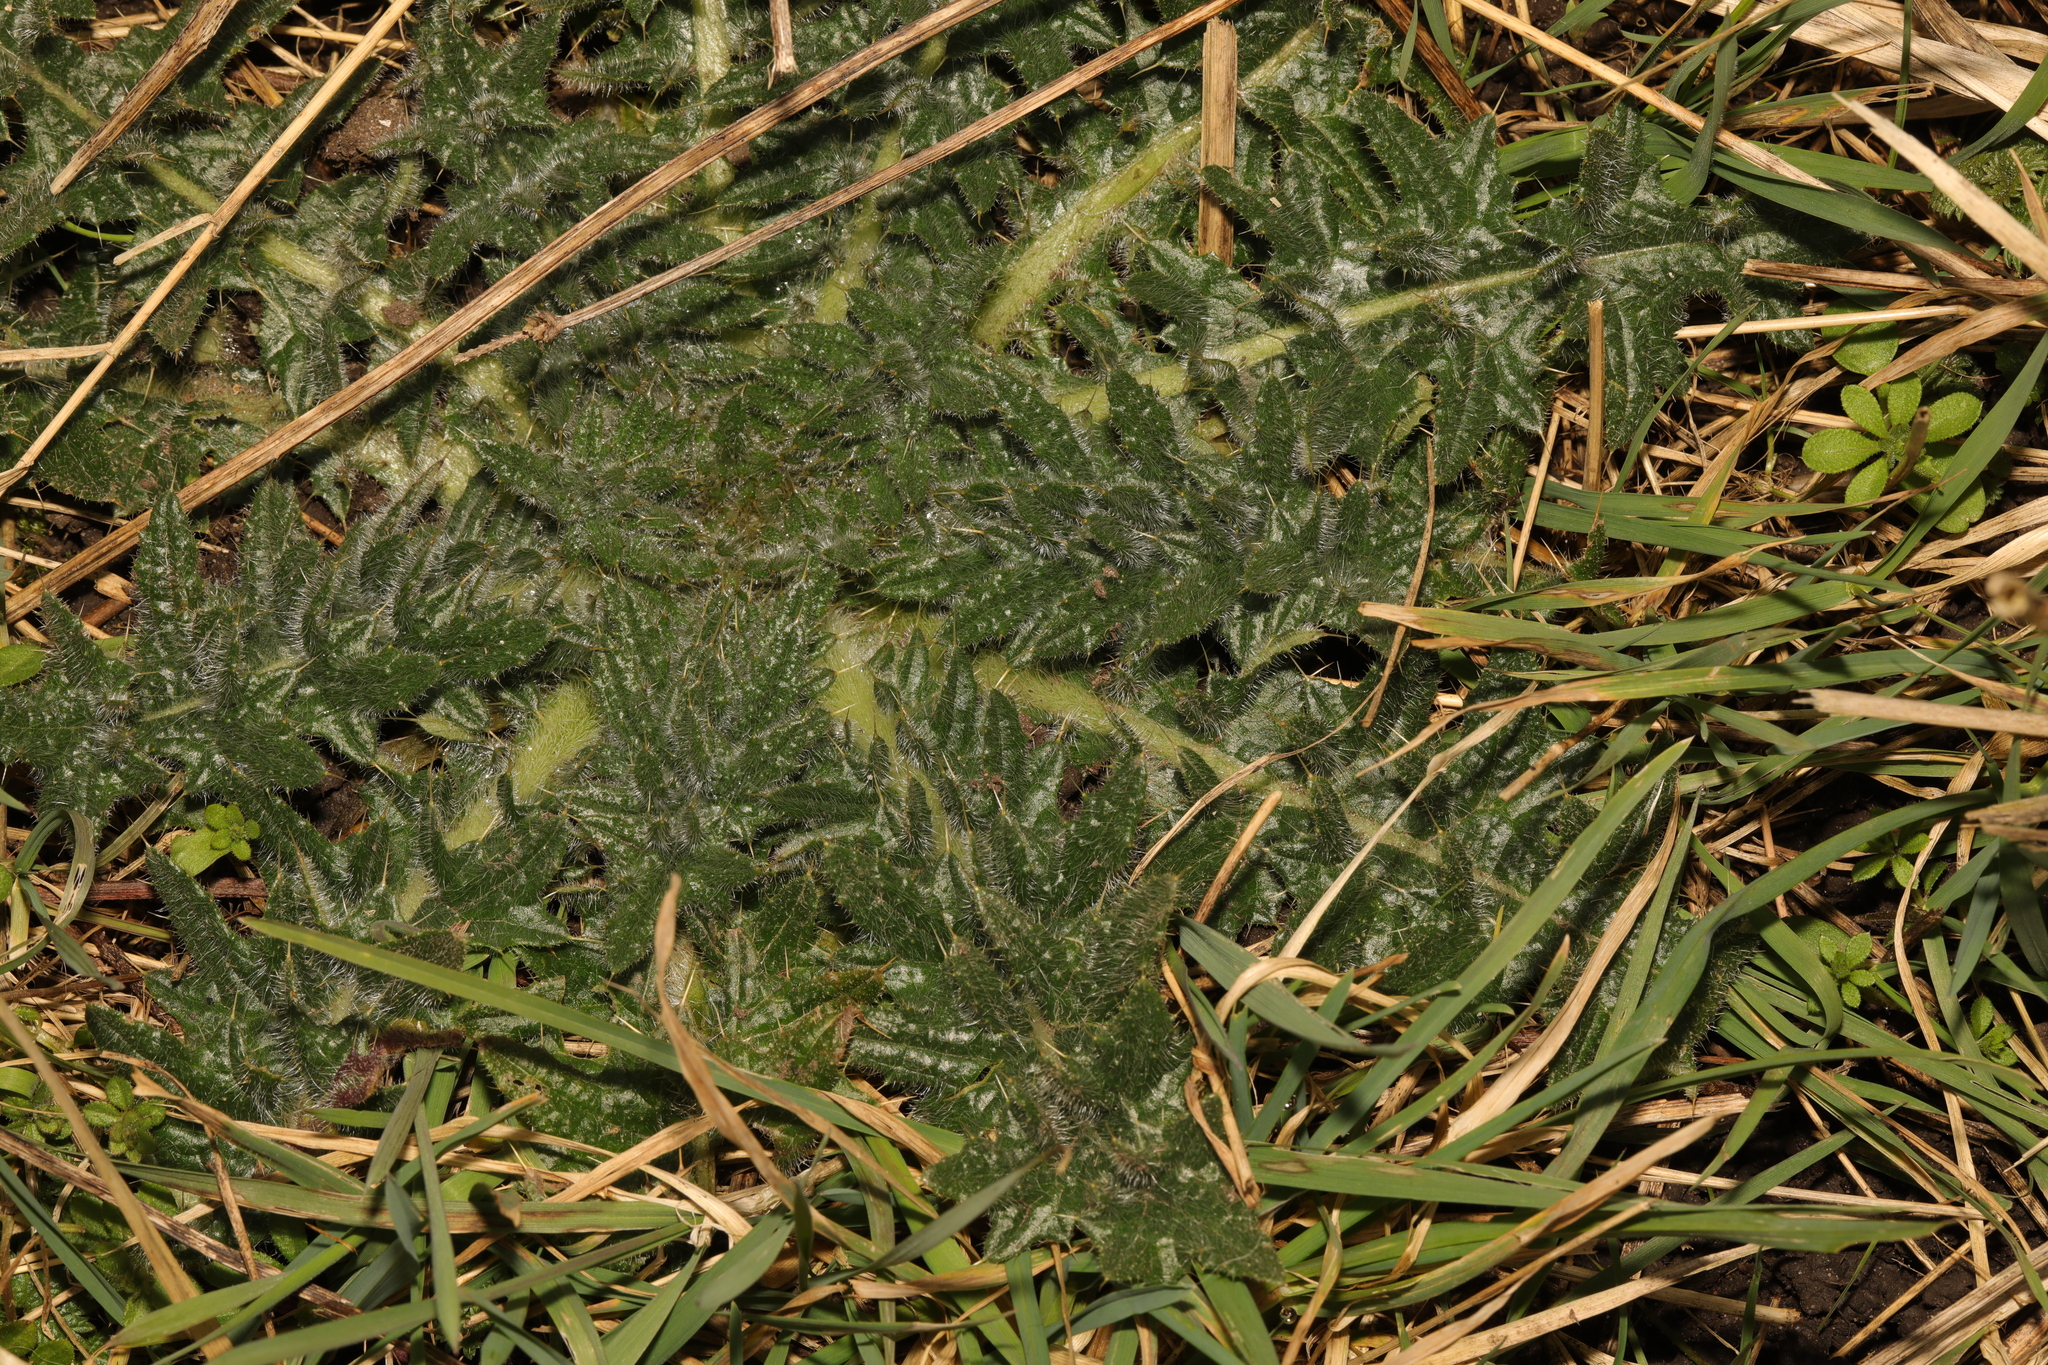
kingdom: Plantae
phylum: Tracheophyta
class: Magnoliopsida
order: Asterales
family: Asteraceae
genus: Cirsium
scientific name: Cirsium vulgare
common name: Bull thistle
